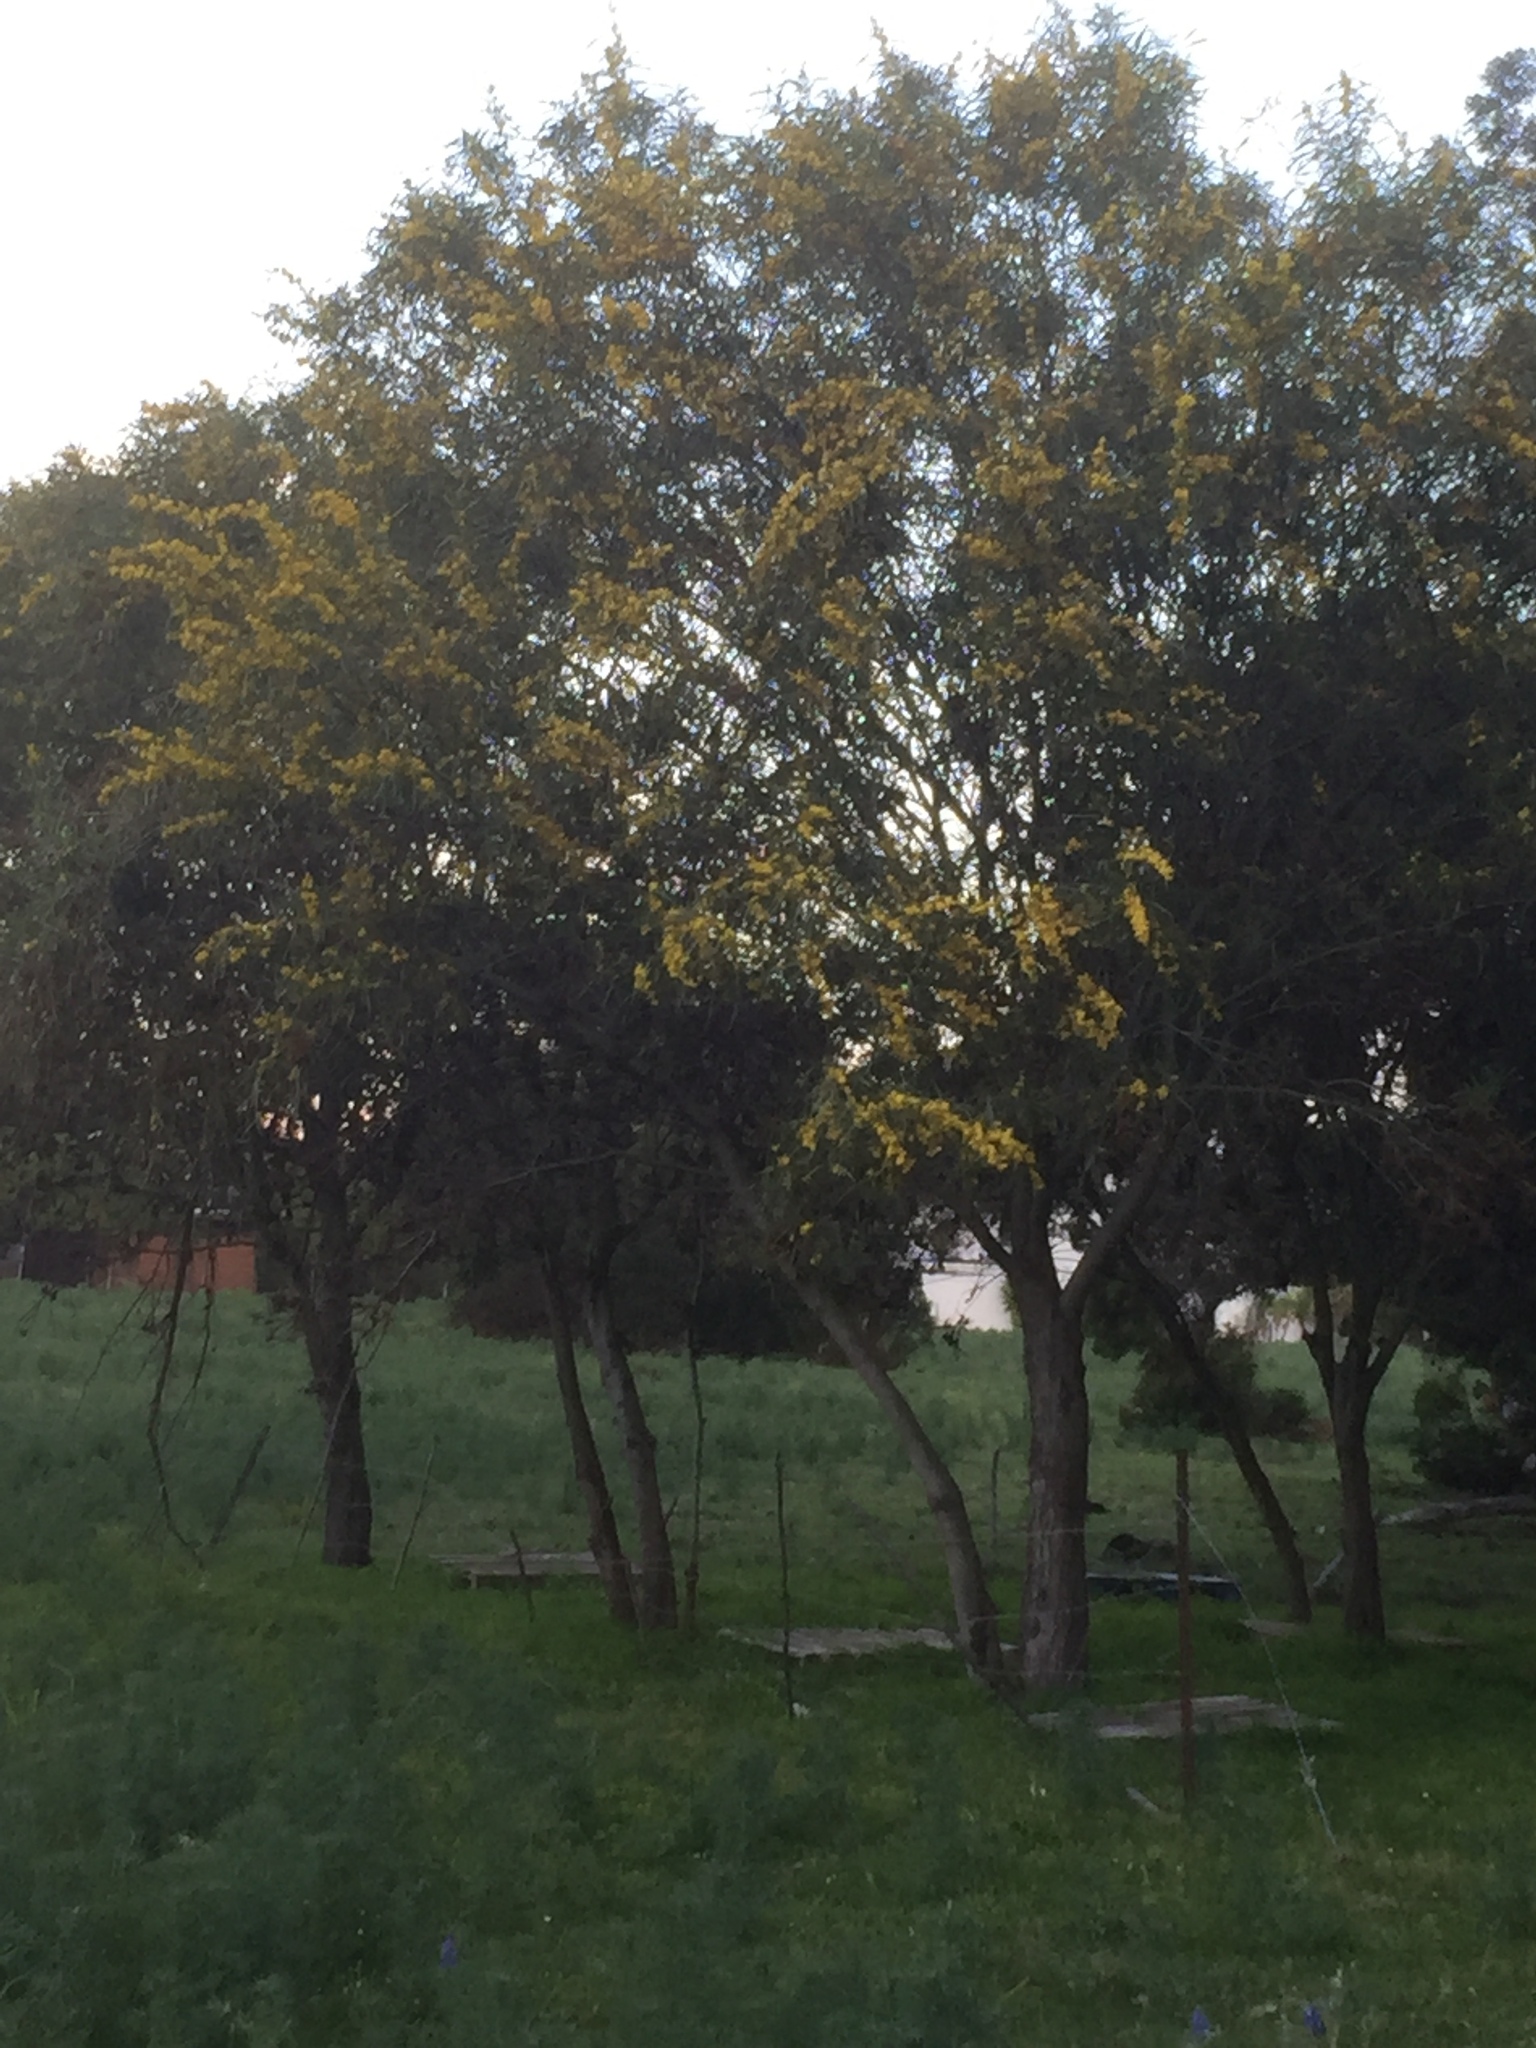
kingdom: Plantae
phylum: Tracheophyta
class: Magnoliopsida
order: Fabales
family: Fabaceae
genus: Acacia
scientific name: Acacia saligna
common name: Orange wattle
